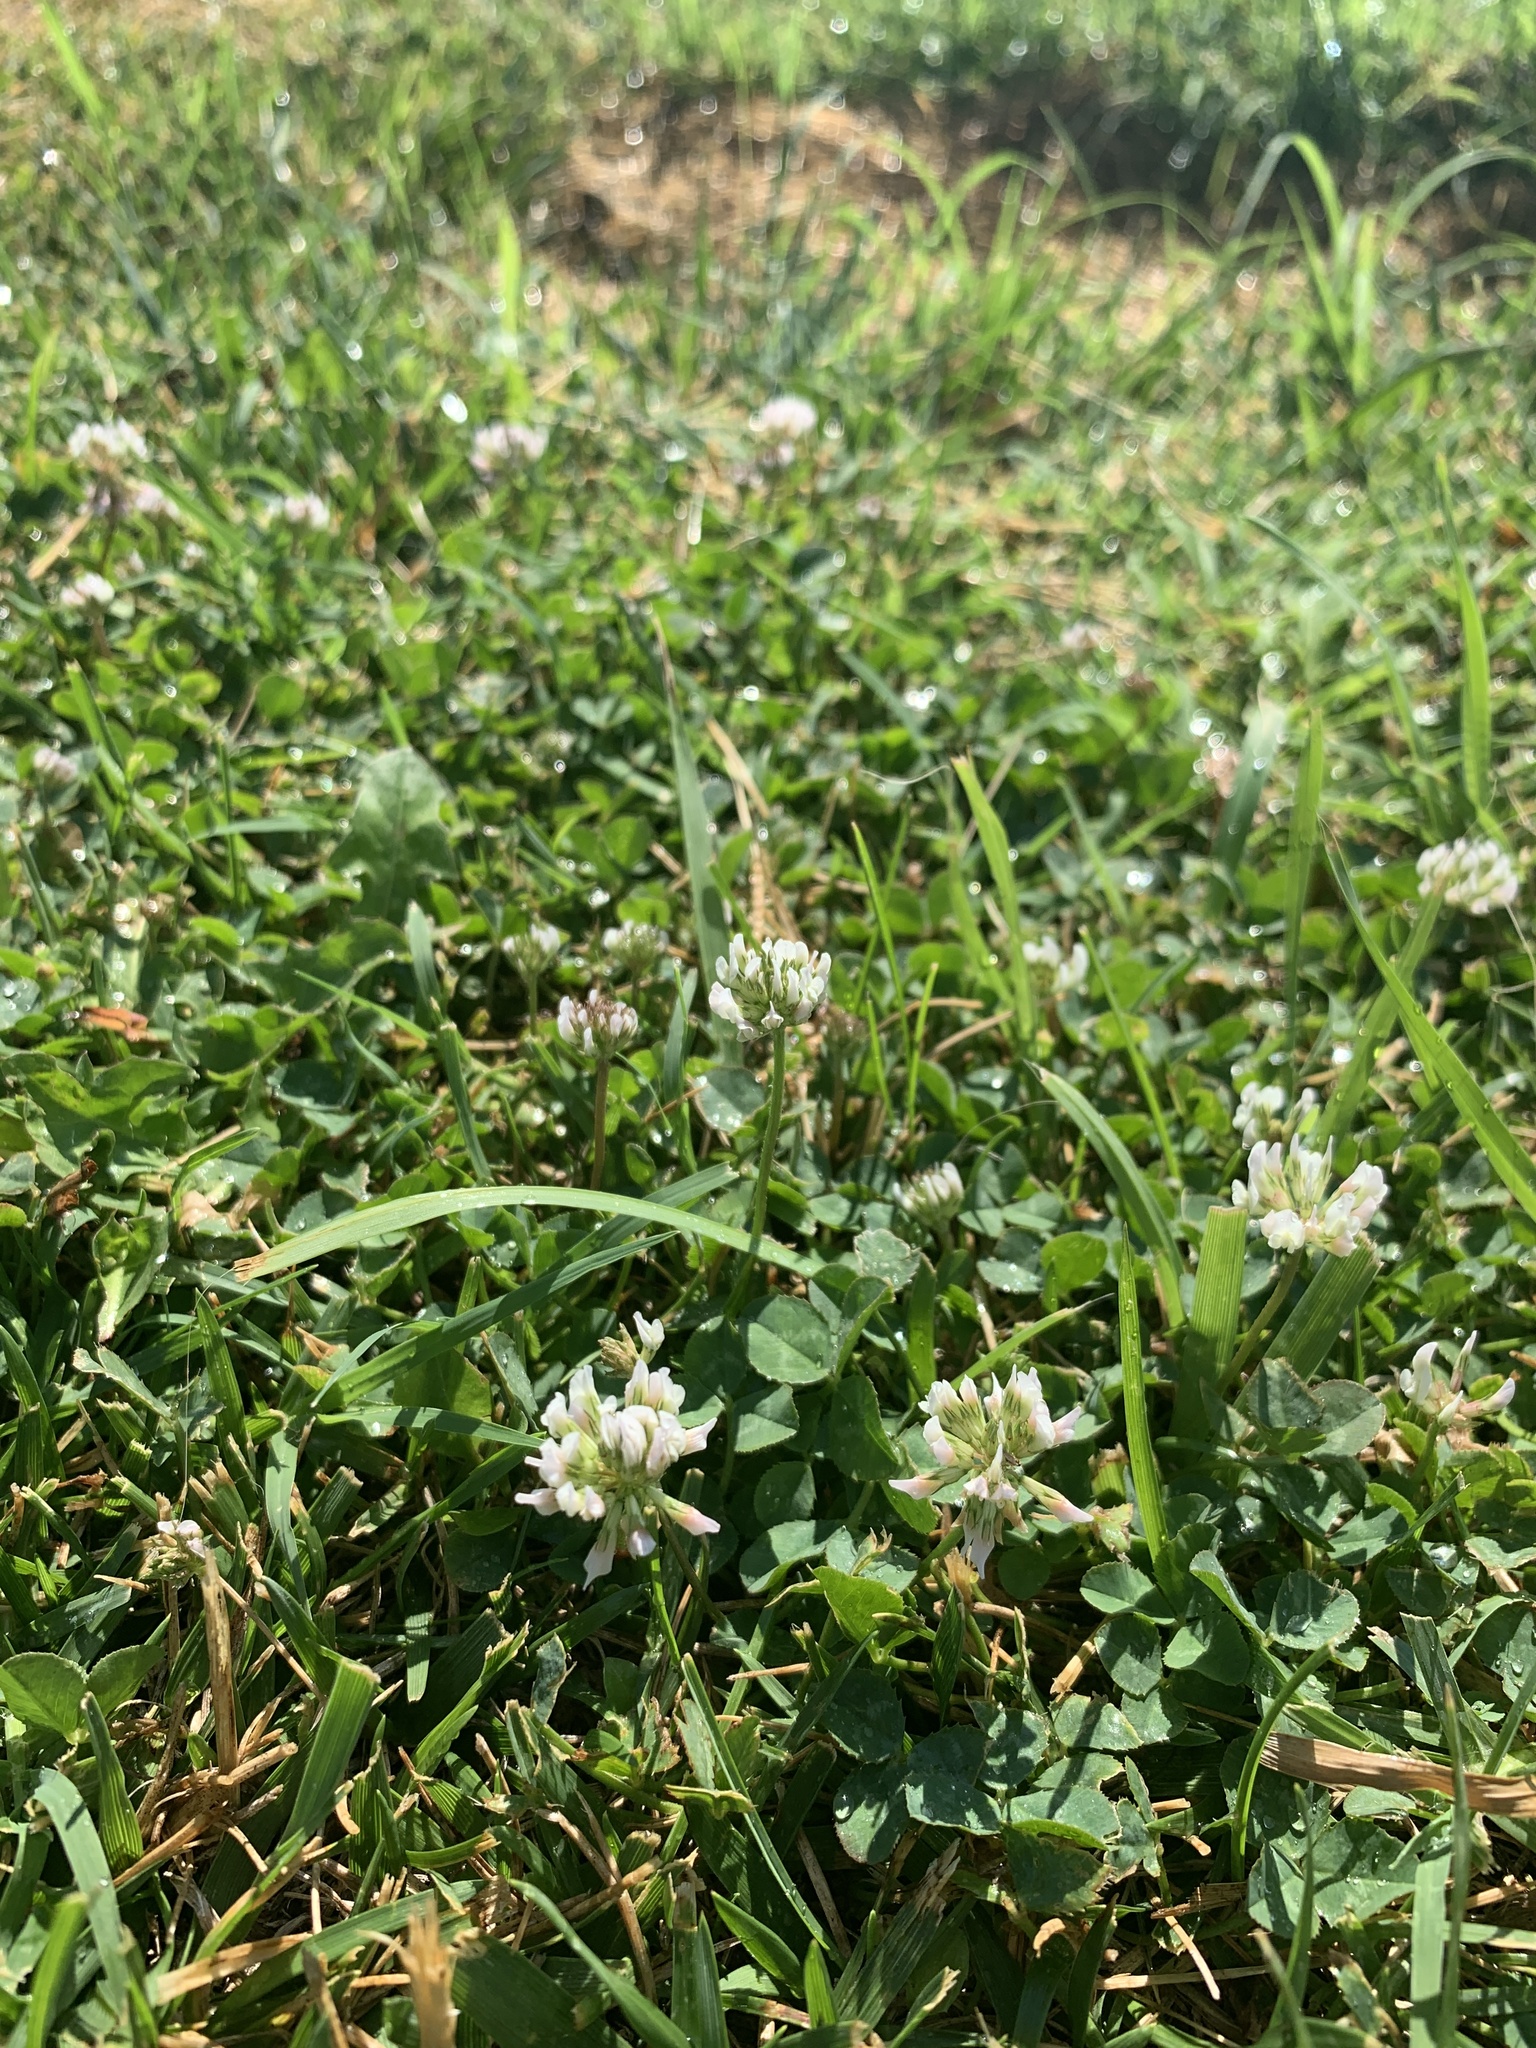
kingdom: Plantae
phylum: Tracheophyta
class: Magnoliopsida
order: Fabales
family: Fabaceae
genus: Trifolium
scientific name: Trifolium repens
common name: White clover
